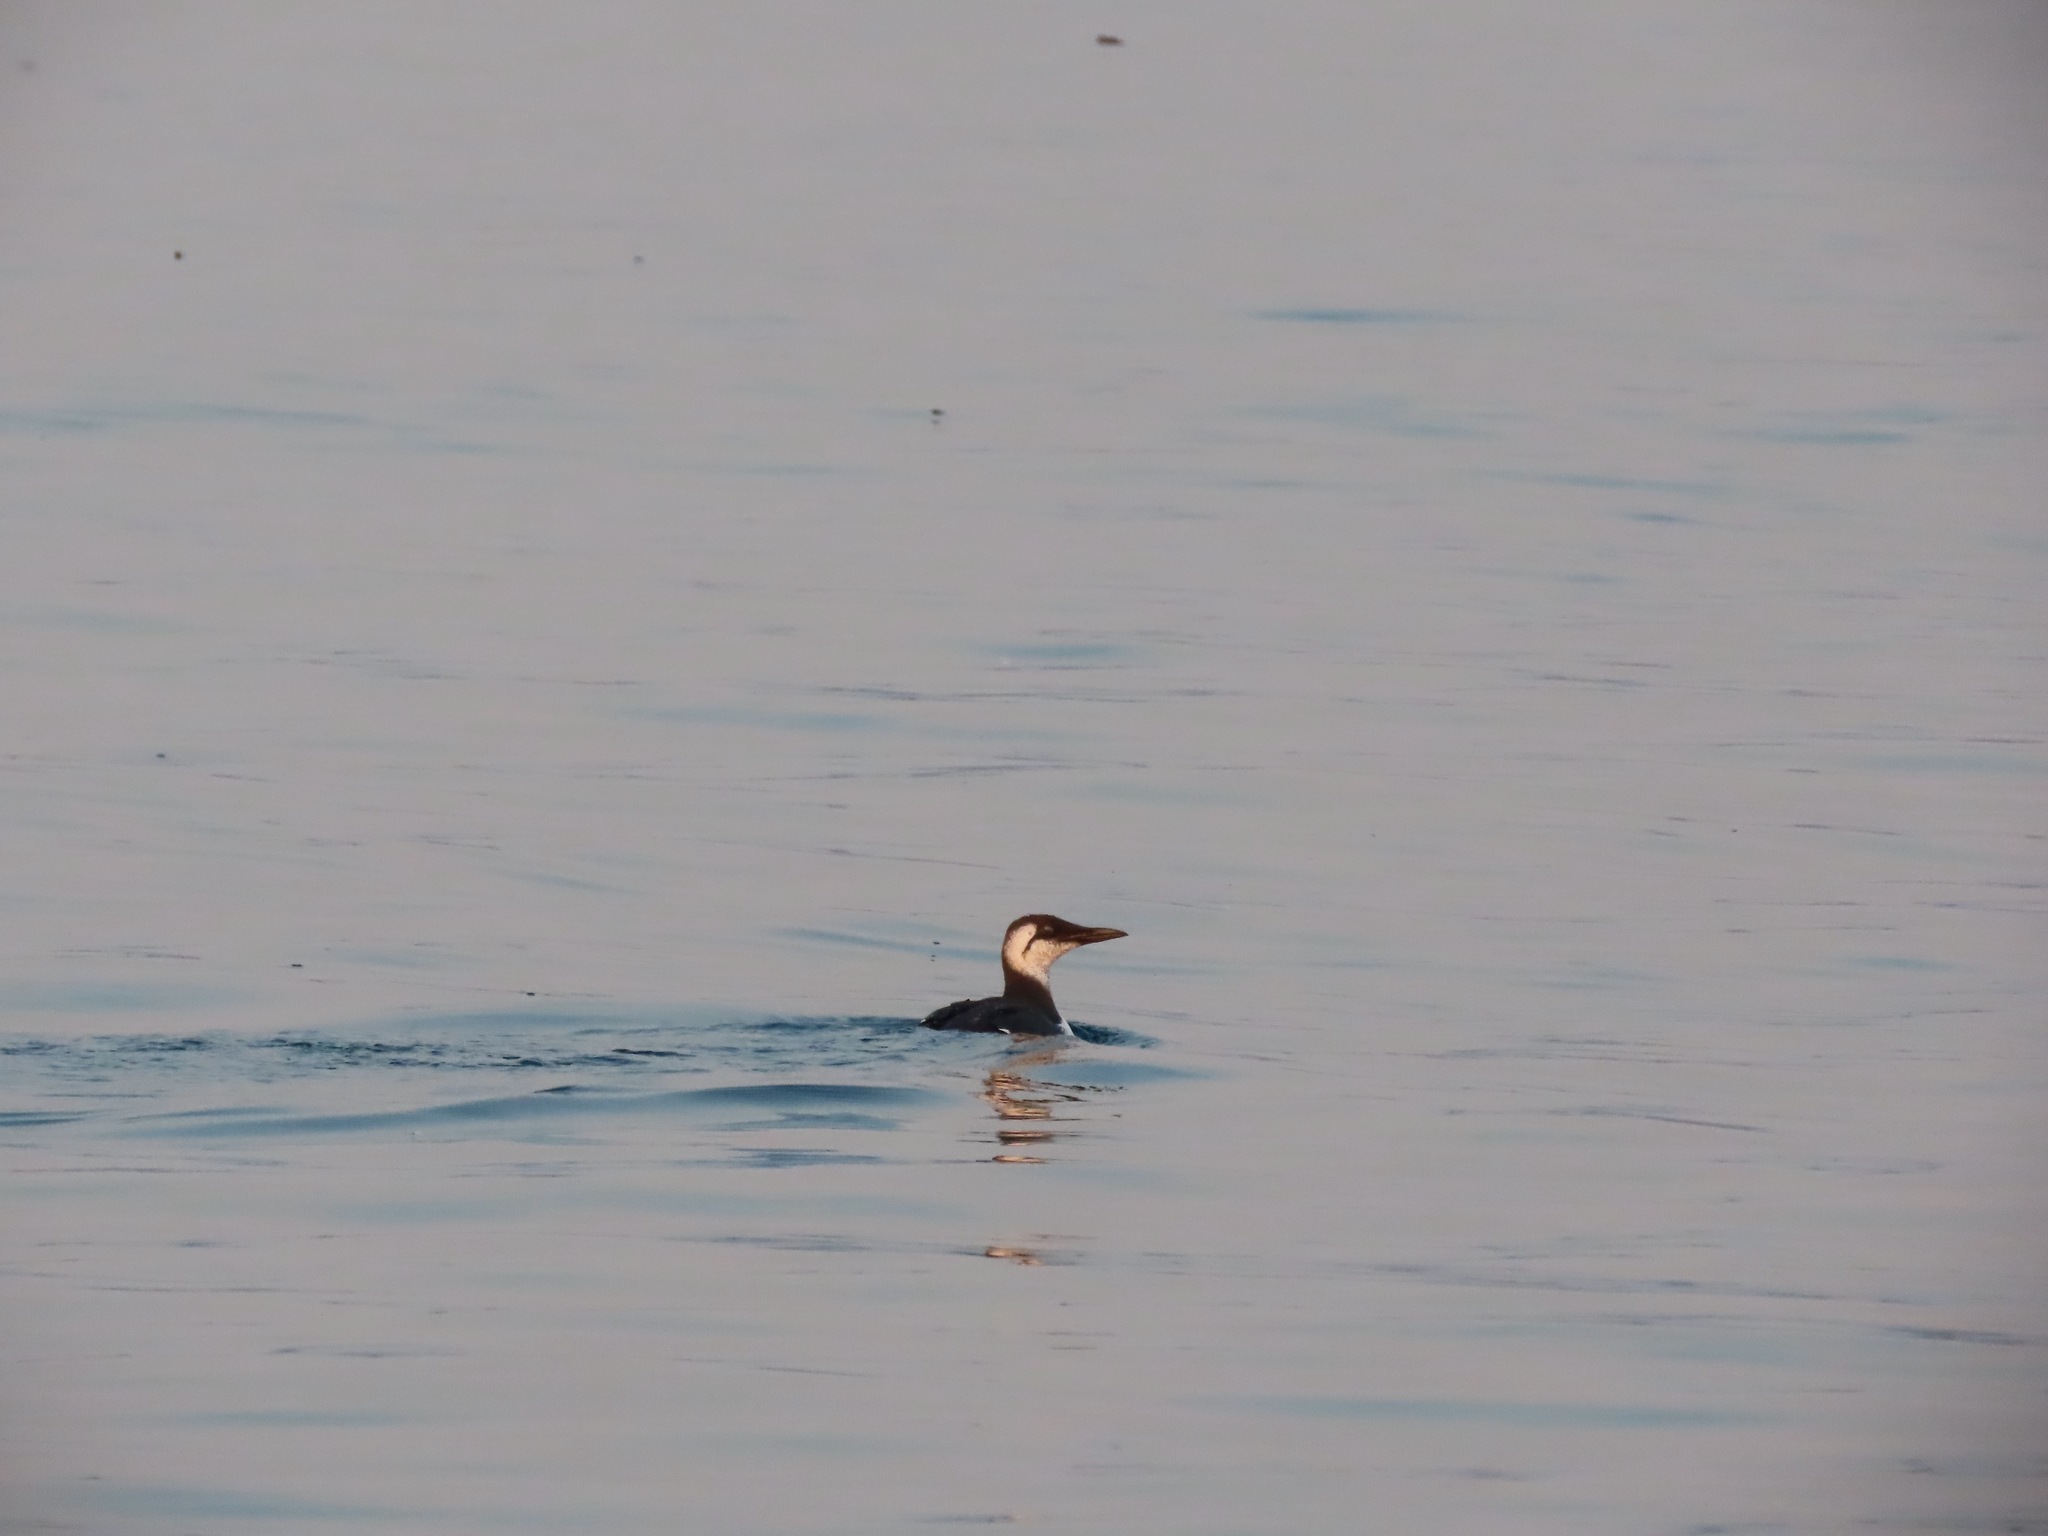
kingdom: Animalia
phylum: Chordata
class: Aves
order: Charadriiformes
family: Alcidae
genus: Uria
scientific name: Uria aalge
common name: Common murre
